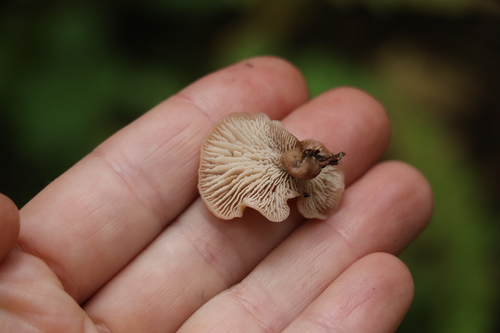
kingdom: Fungi
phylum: Basidiomycota
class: Agaricomycetes
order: Russulales
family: Auriscalpiaceae
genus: Lentinellus
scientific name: Lentinellus micheneri
